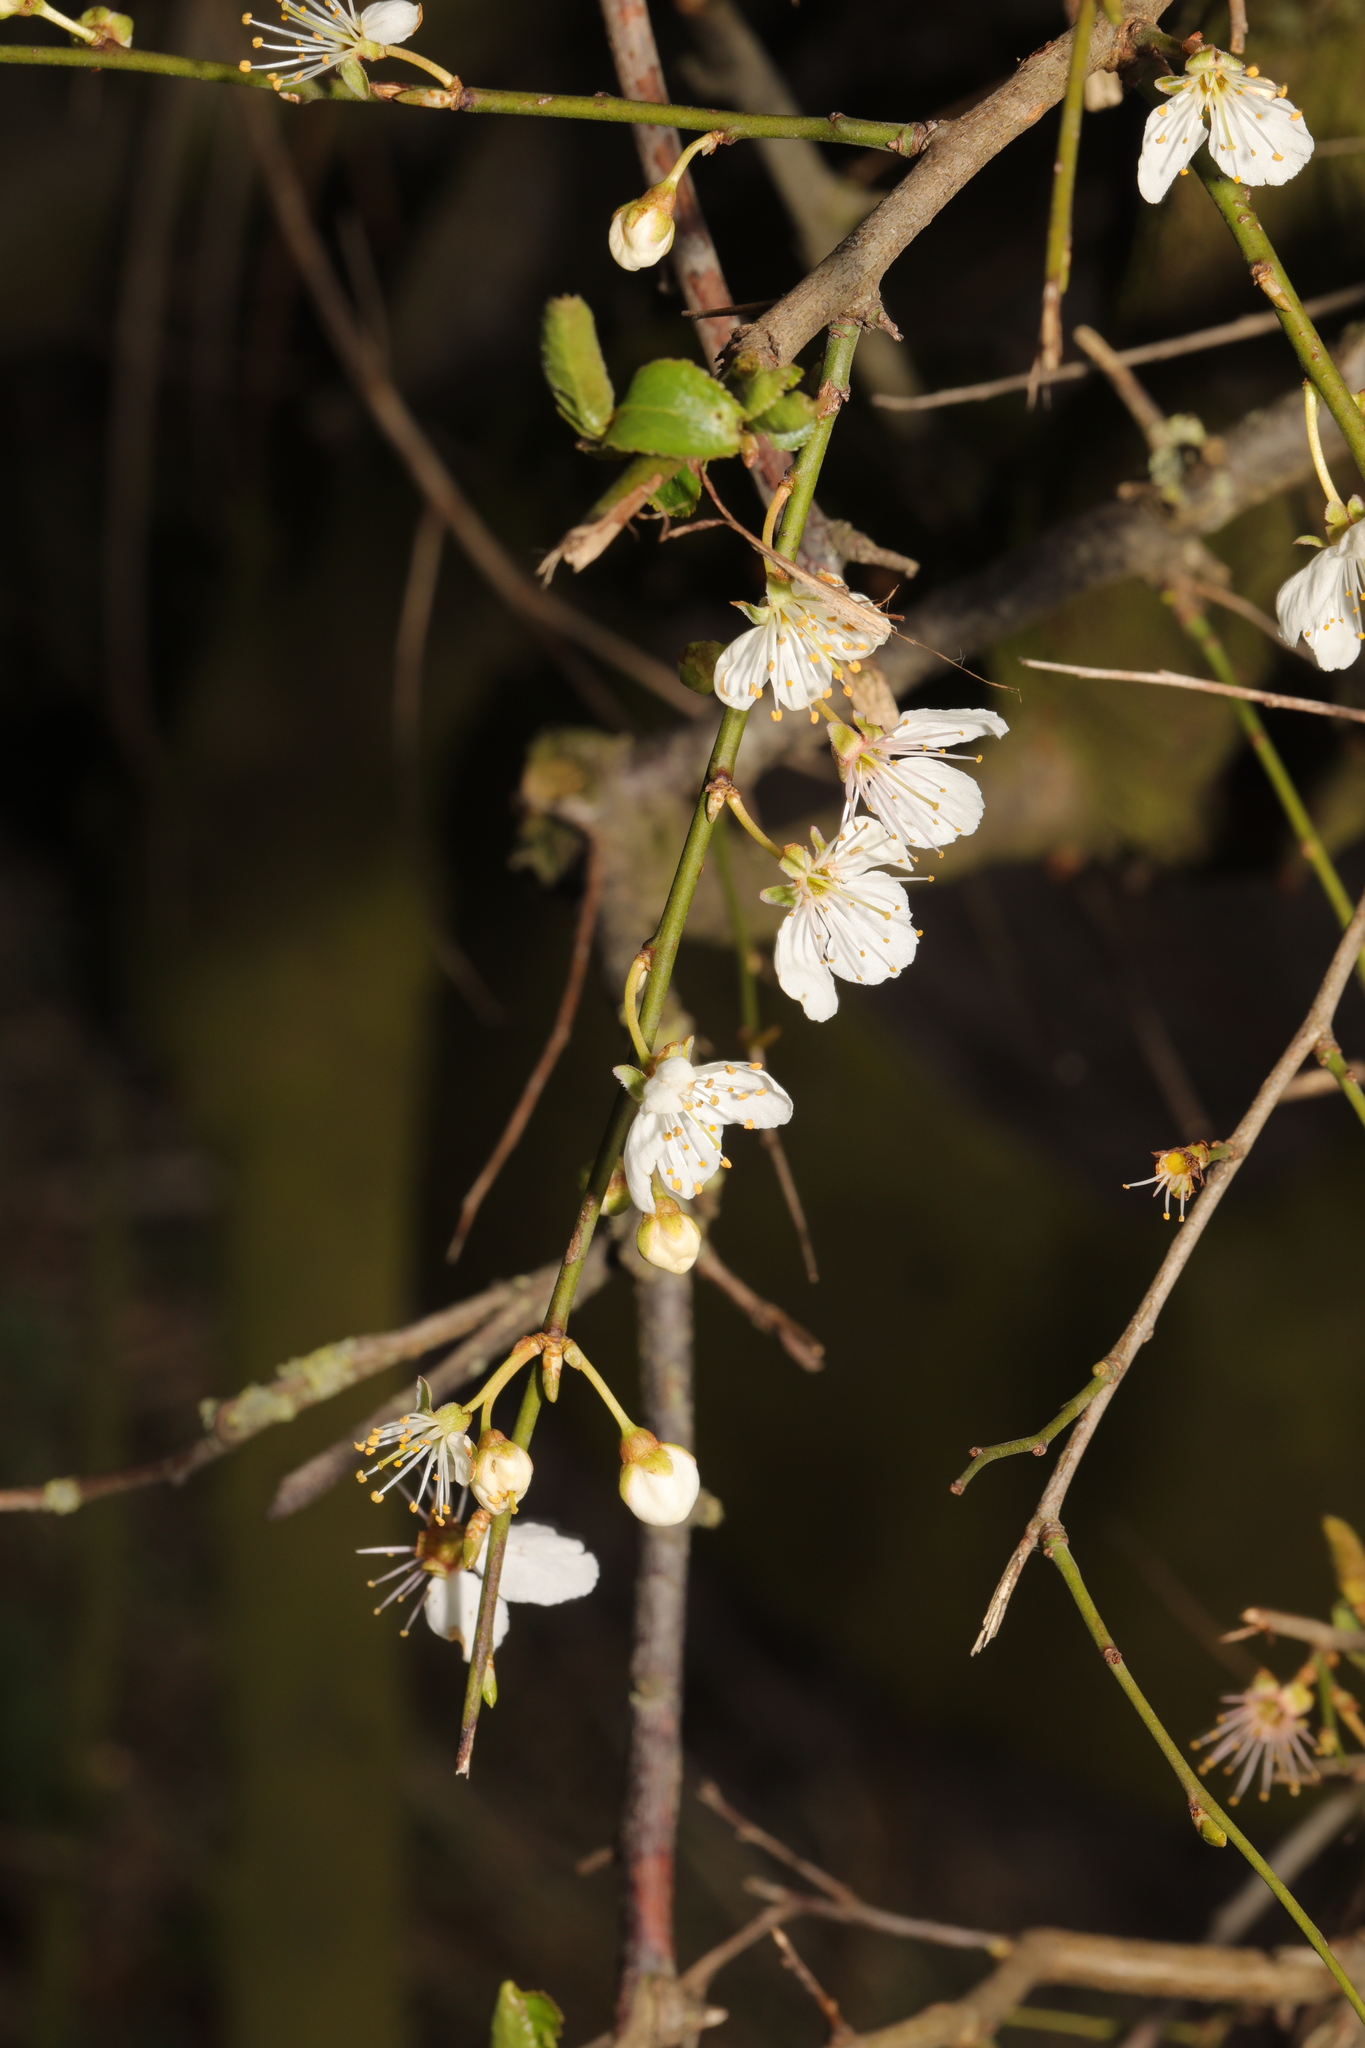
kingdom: Plantae
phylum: Tracheophyta
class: Magnoliopsida
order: Rosales
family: Rosaceae
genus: Prunus
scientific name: Prunus cerasifera
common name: Cherry plum
